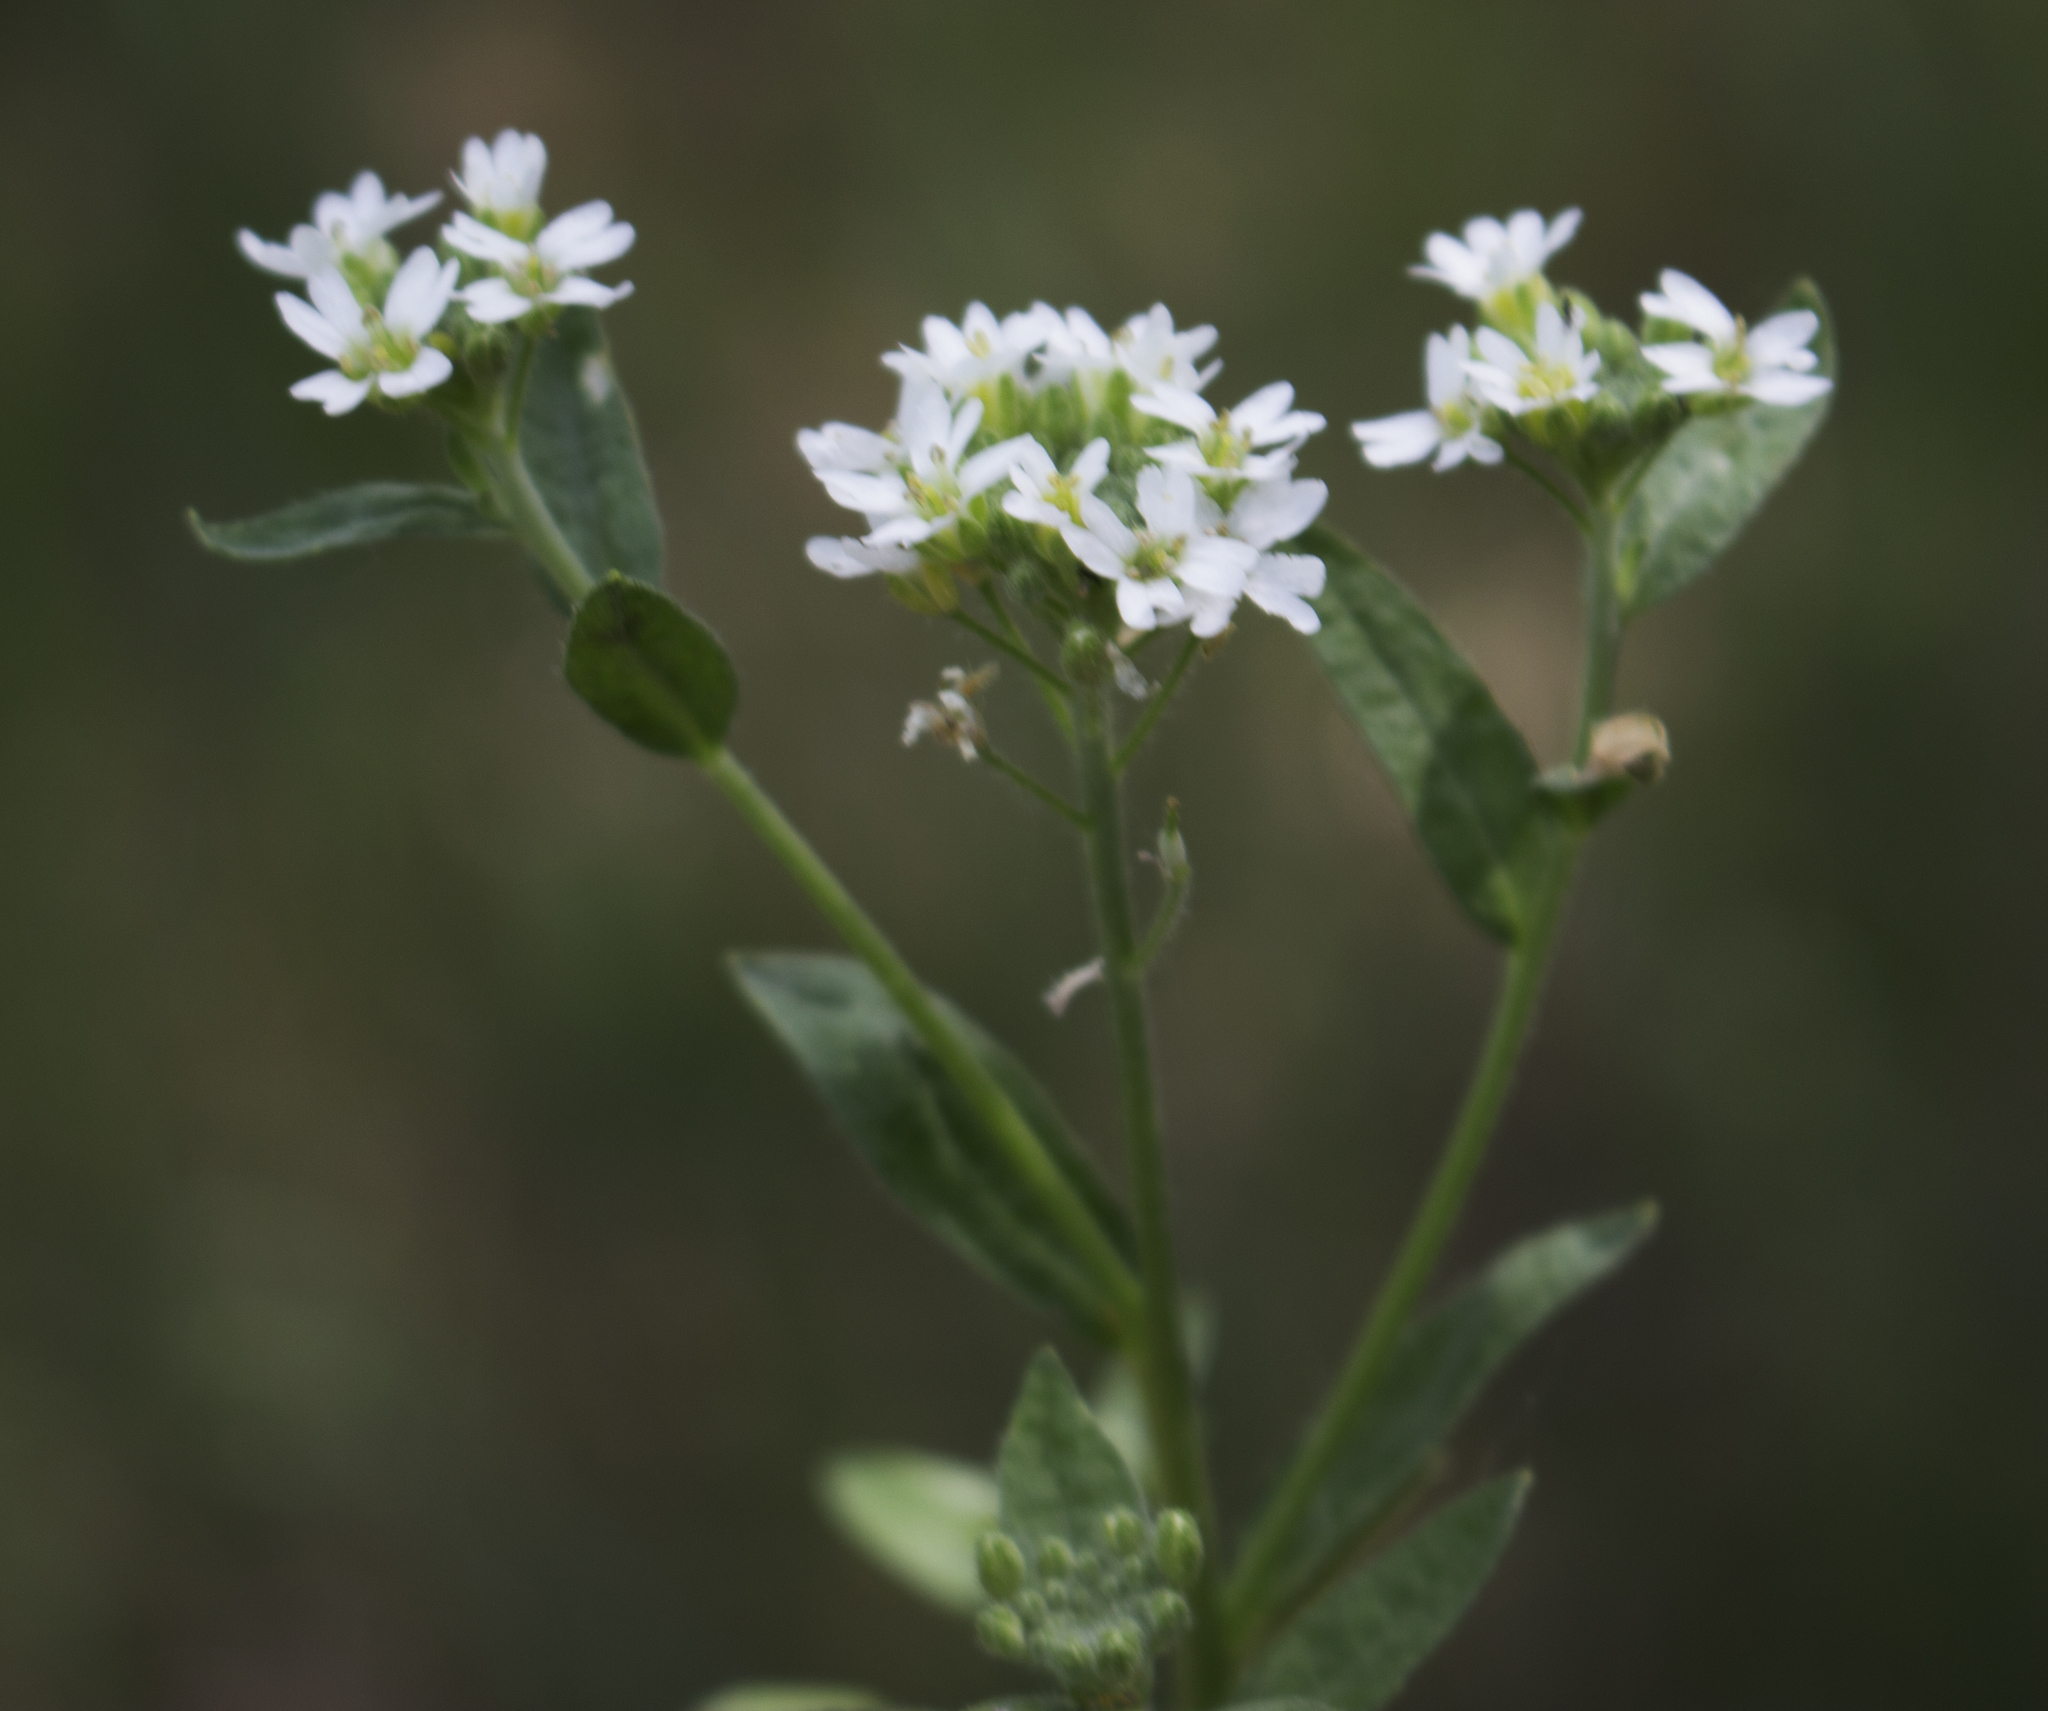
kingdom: Plantae
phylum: Tracheophyta
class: Magnoliopsida
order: Brassicales
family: Brassicaceae
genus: Berteroa
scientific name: Berteroa incana
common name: Hoary alison
